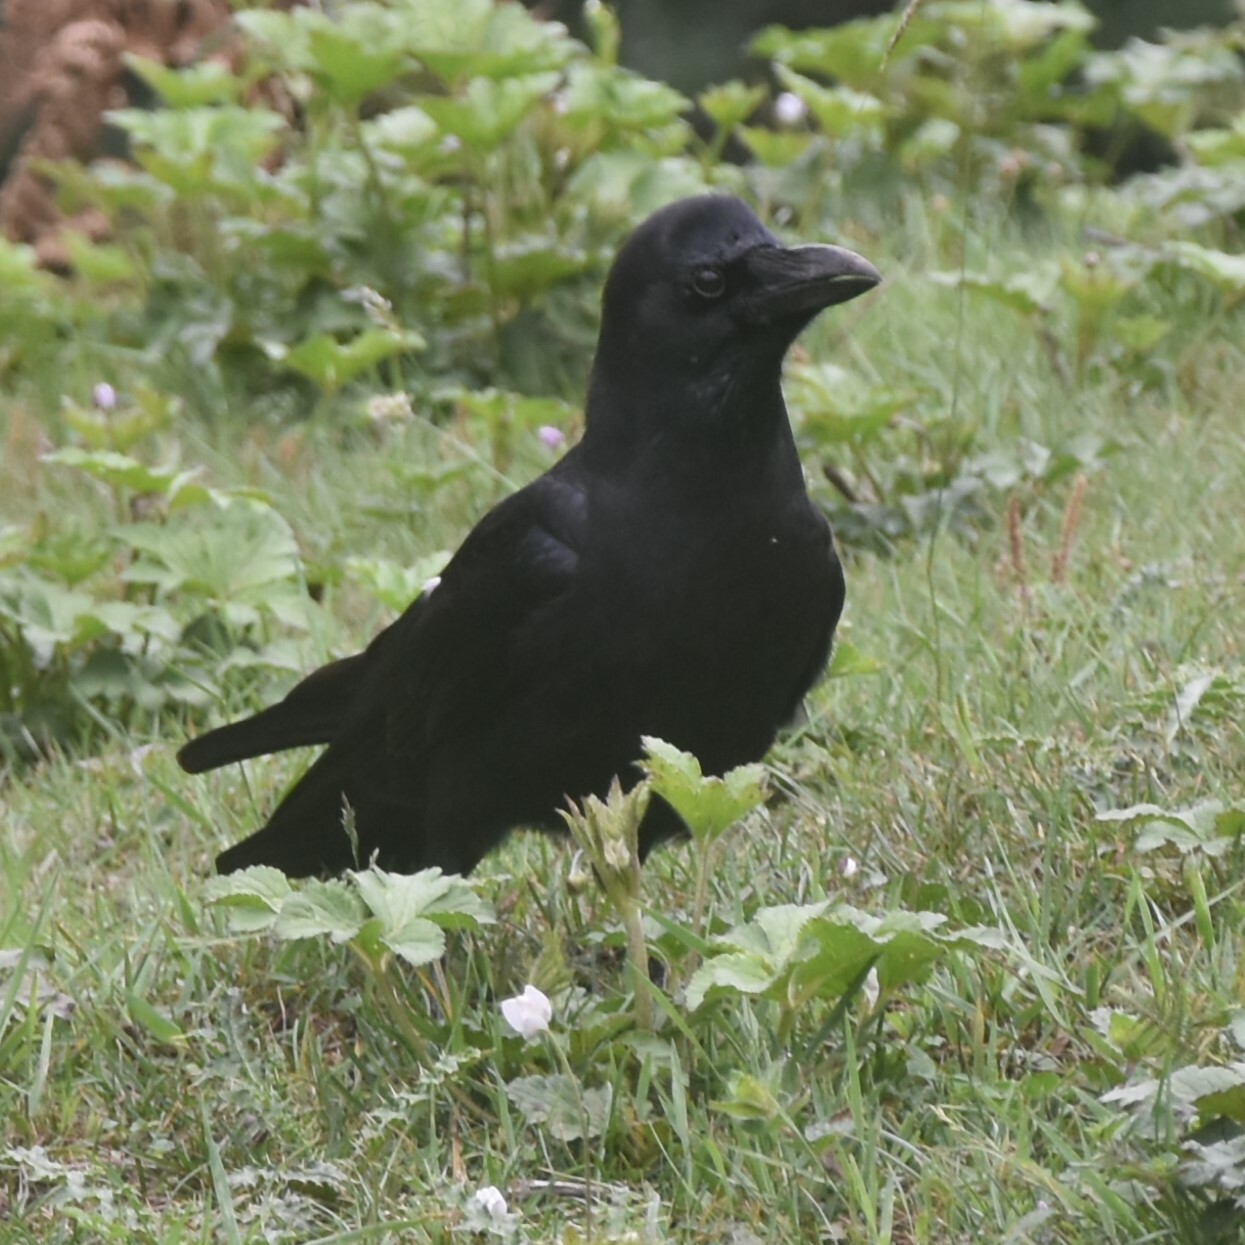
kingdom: Animalia
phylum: Chordata
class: Aves
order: Passeriformes
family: Corvidae
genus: Corvus
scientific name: Corvus macrorhynchos
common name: Large-billed crow
